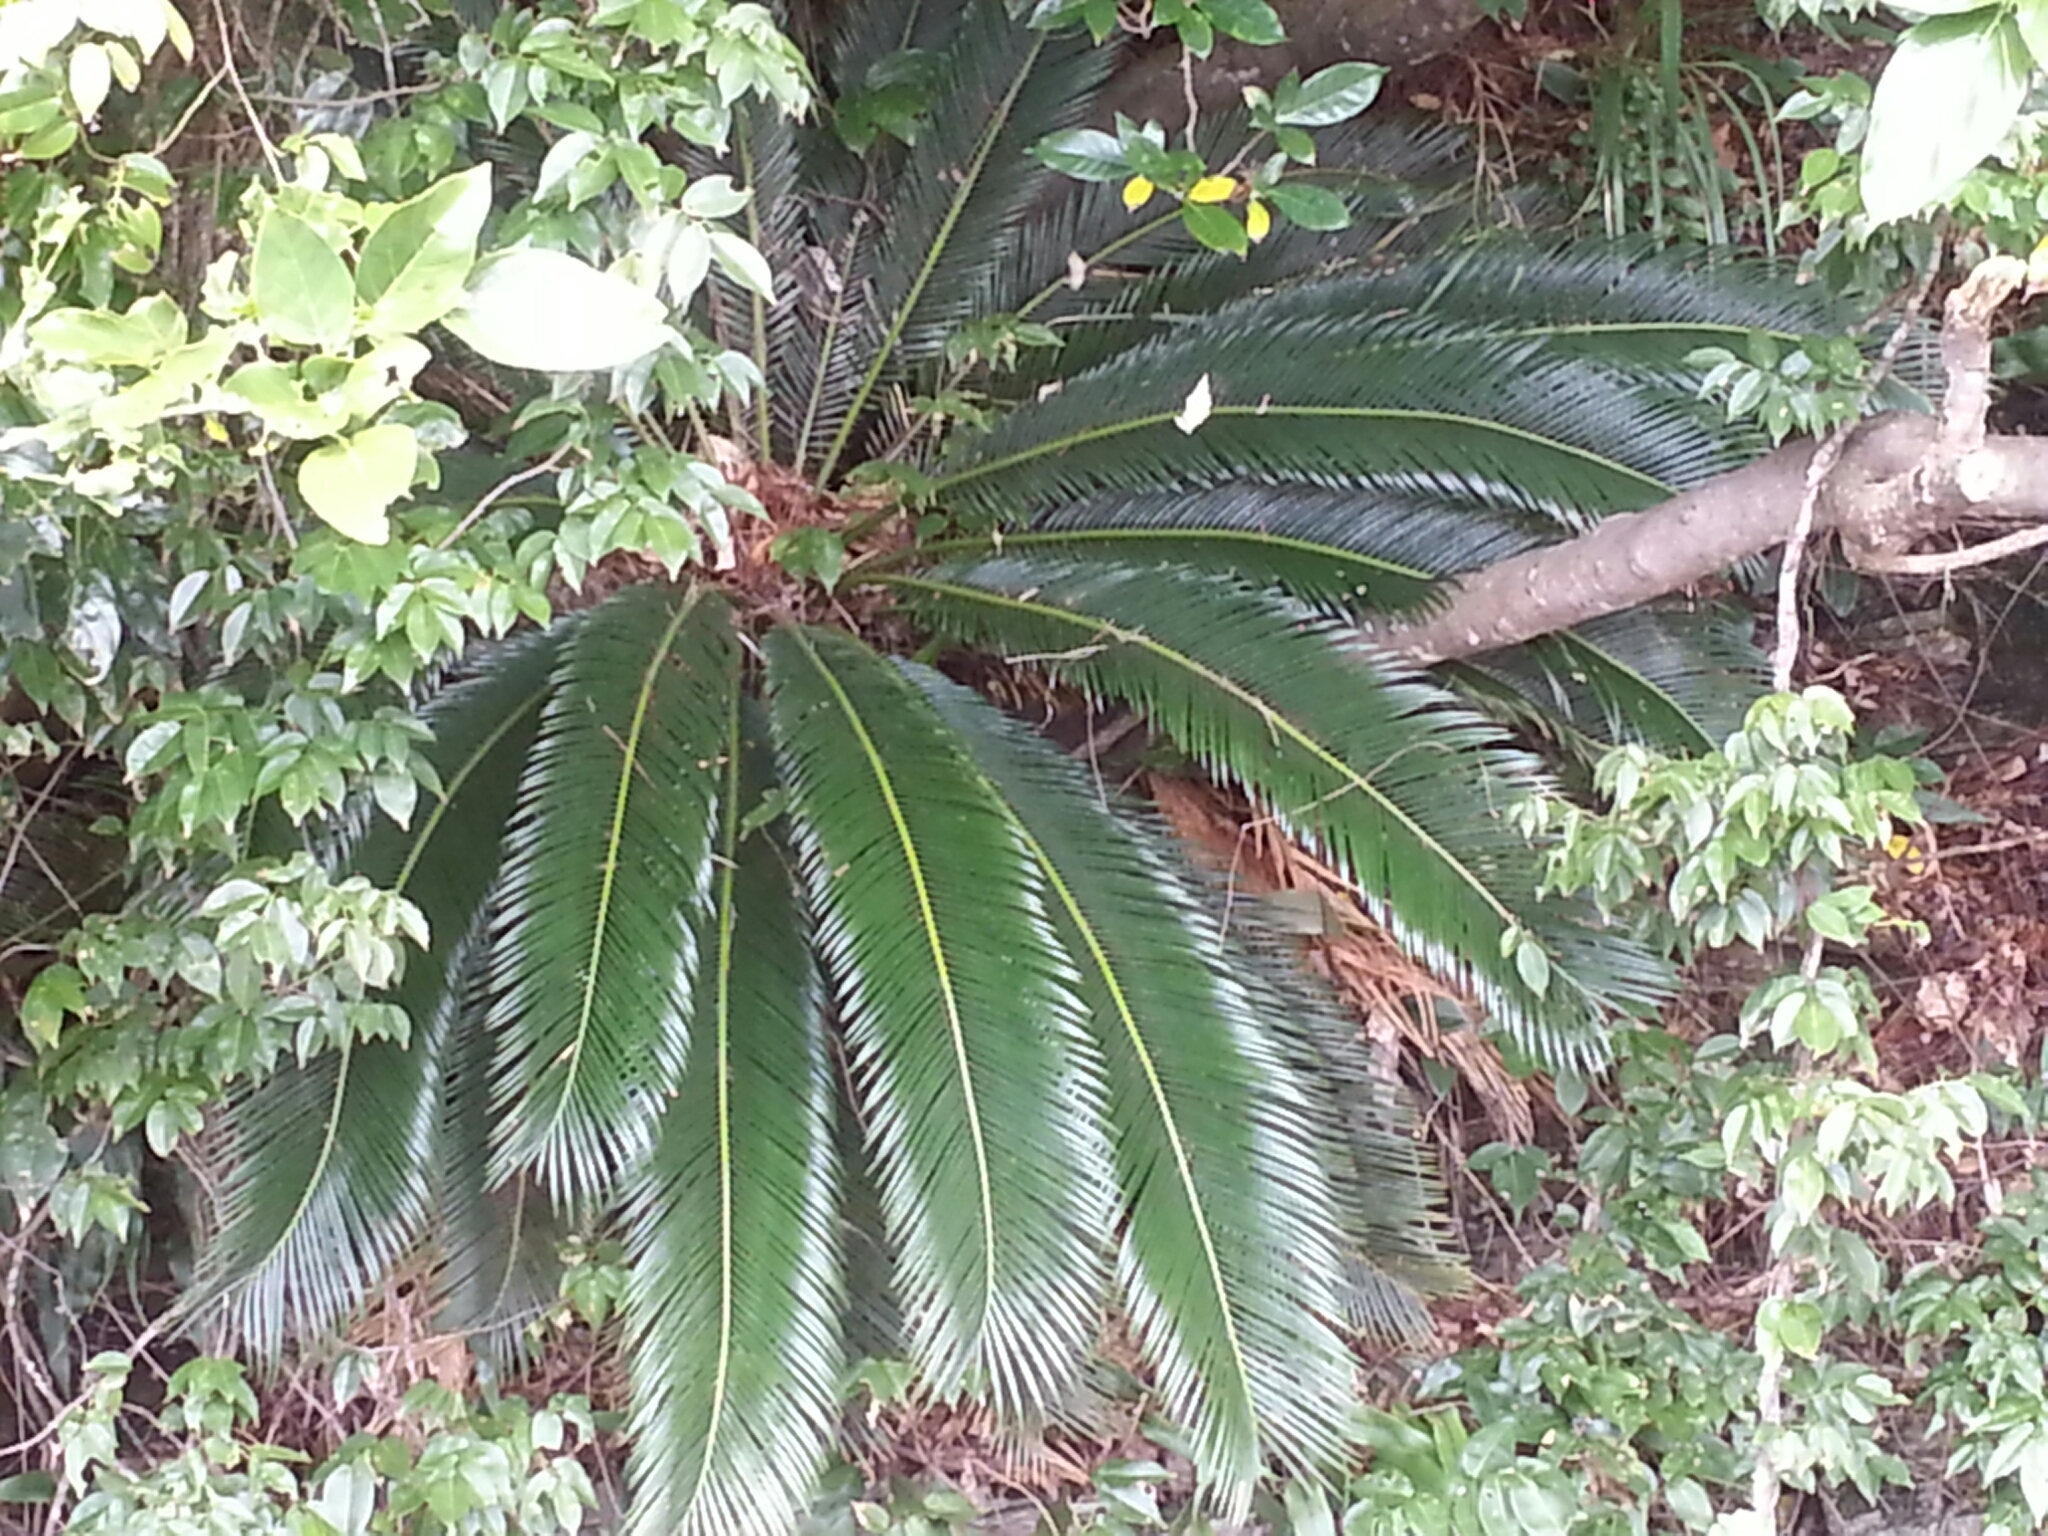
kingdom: Plantae
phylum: Tracheophyta
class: Cycadopsida
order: Cycadales
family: Cycadaceae
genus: Cycas
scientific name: Cycas revoluta
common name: Sago palm
